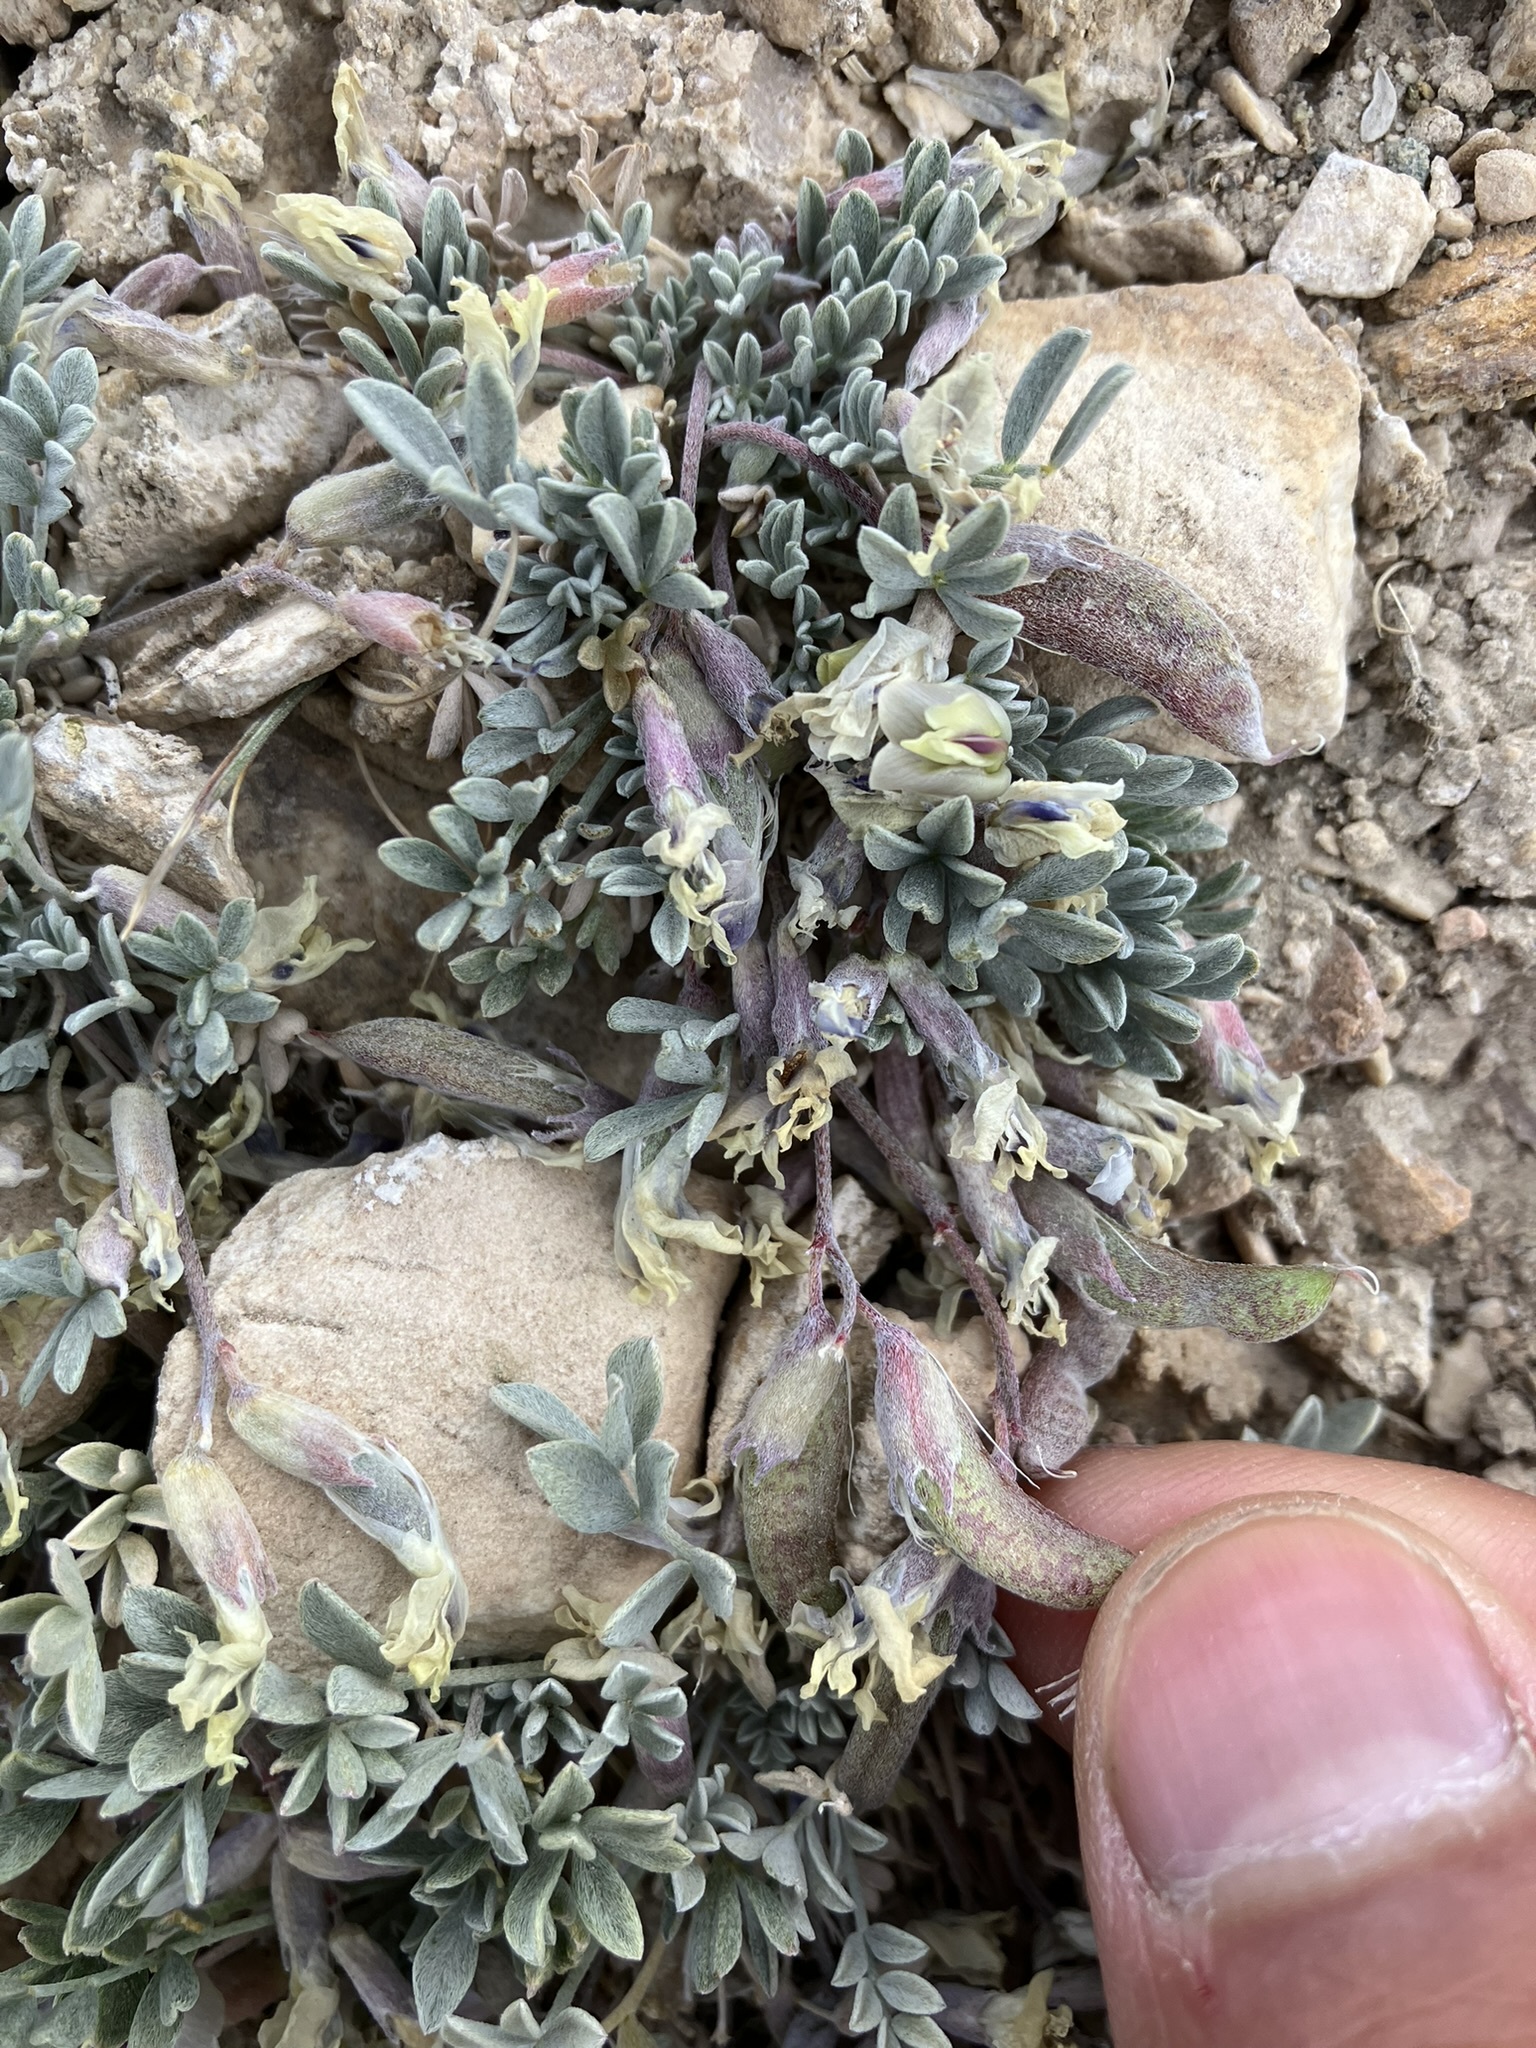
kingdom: Plantae
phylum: Tracheophyta
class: Magnoliopsida
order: Fabales
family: Fabaceae
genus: Astragalus
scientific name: Astragalus calycosus
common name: King's milkvetch
